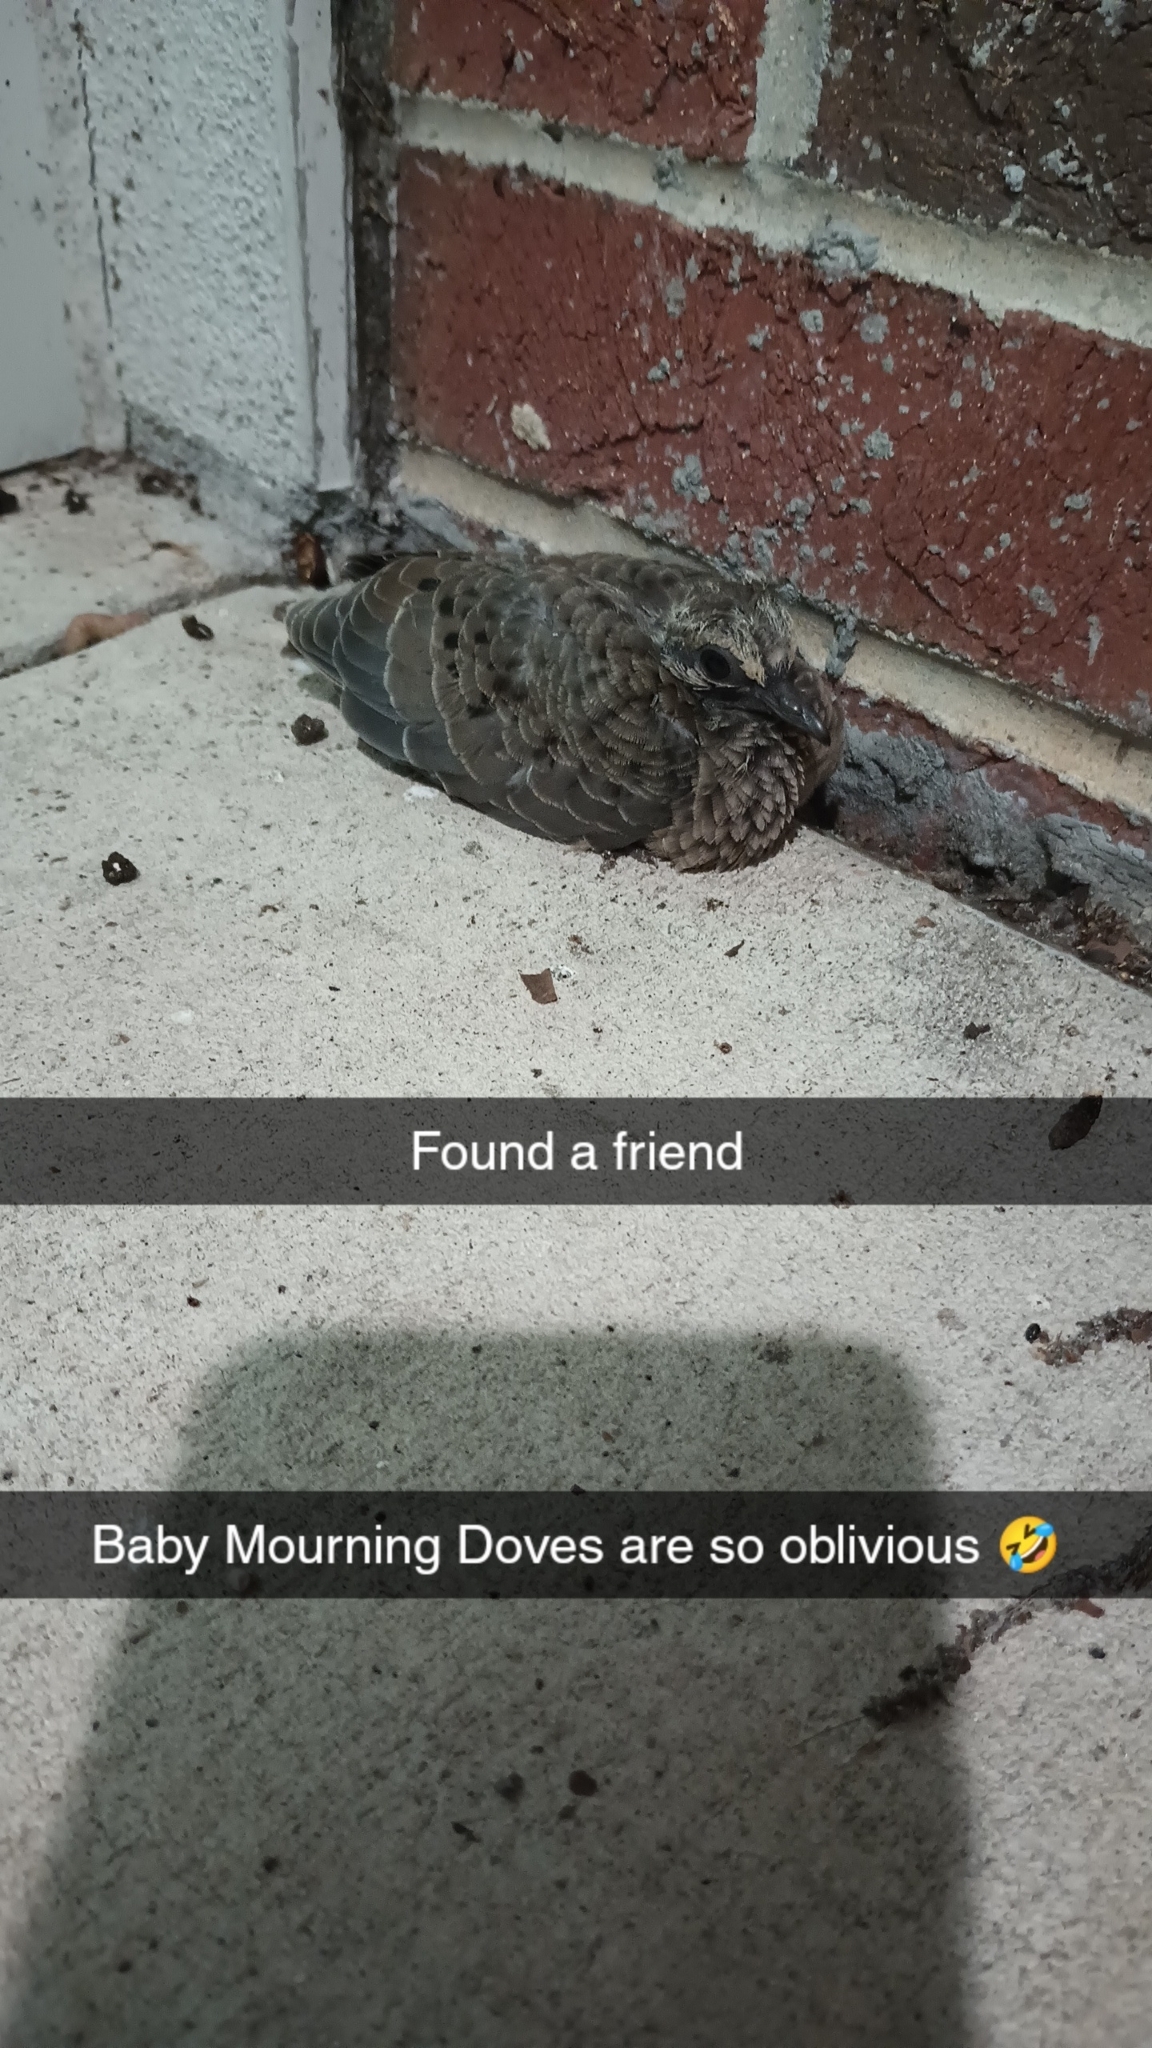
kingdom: Animalia
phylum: Chordata
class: Aves
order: Columbiformes
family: Columbidae
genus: Zenaida
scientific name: Zenaida macroura
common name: Mourning dove
